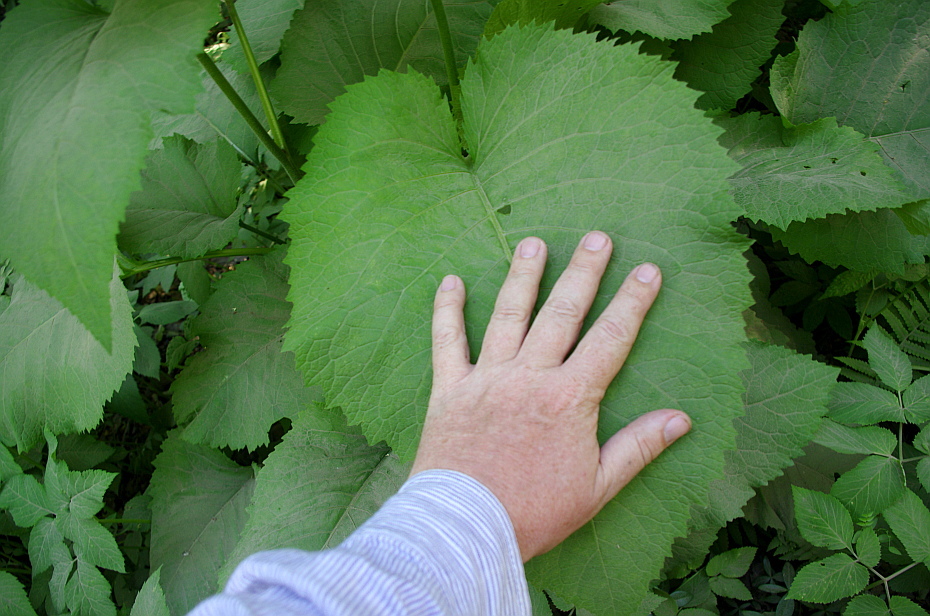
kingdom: Plantae
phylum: Tracheophyta
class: Magnoliopsida
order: Asterales
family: Asteraceae
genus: Telekia
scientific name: Telekia speciosa
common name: Yellow oxeye
